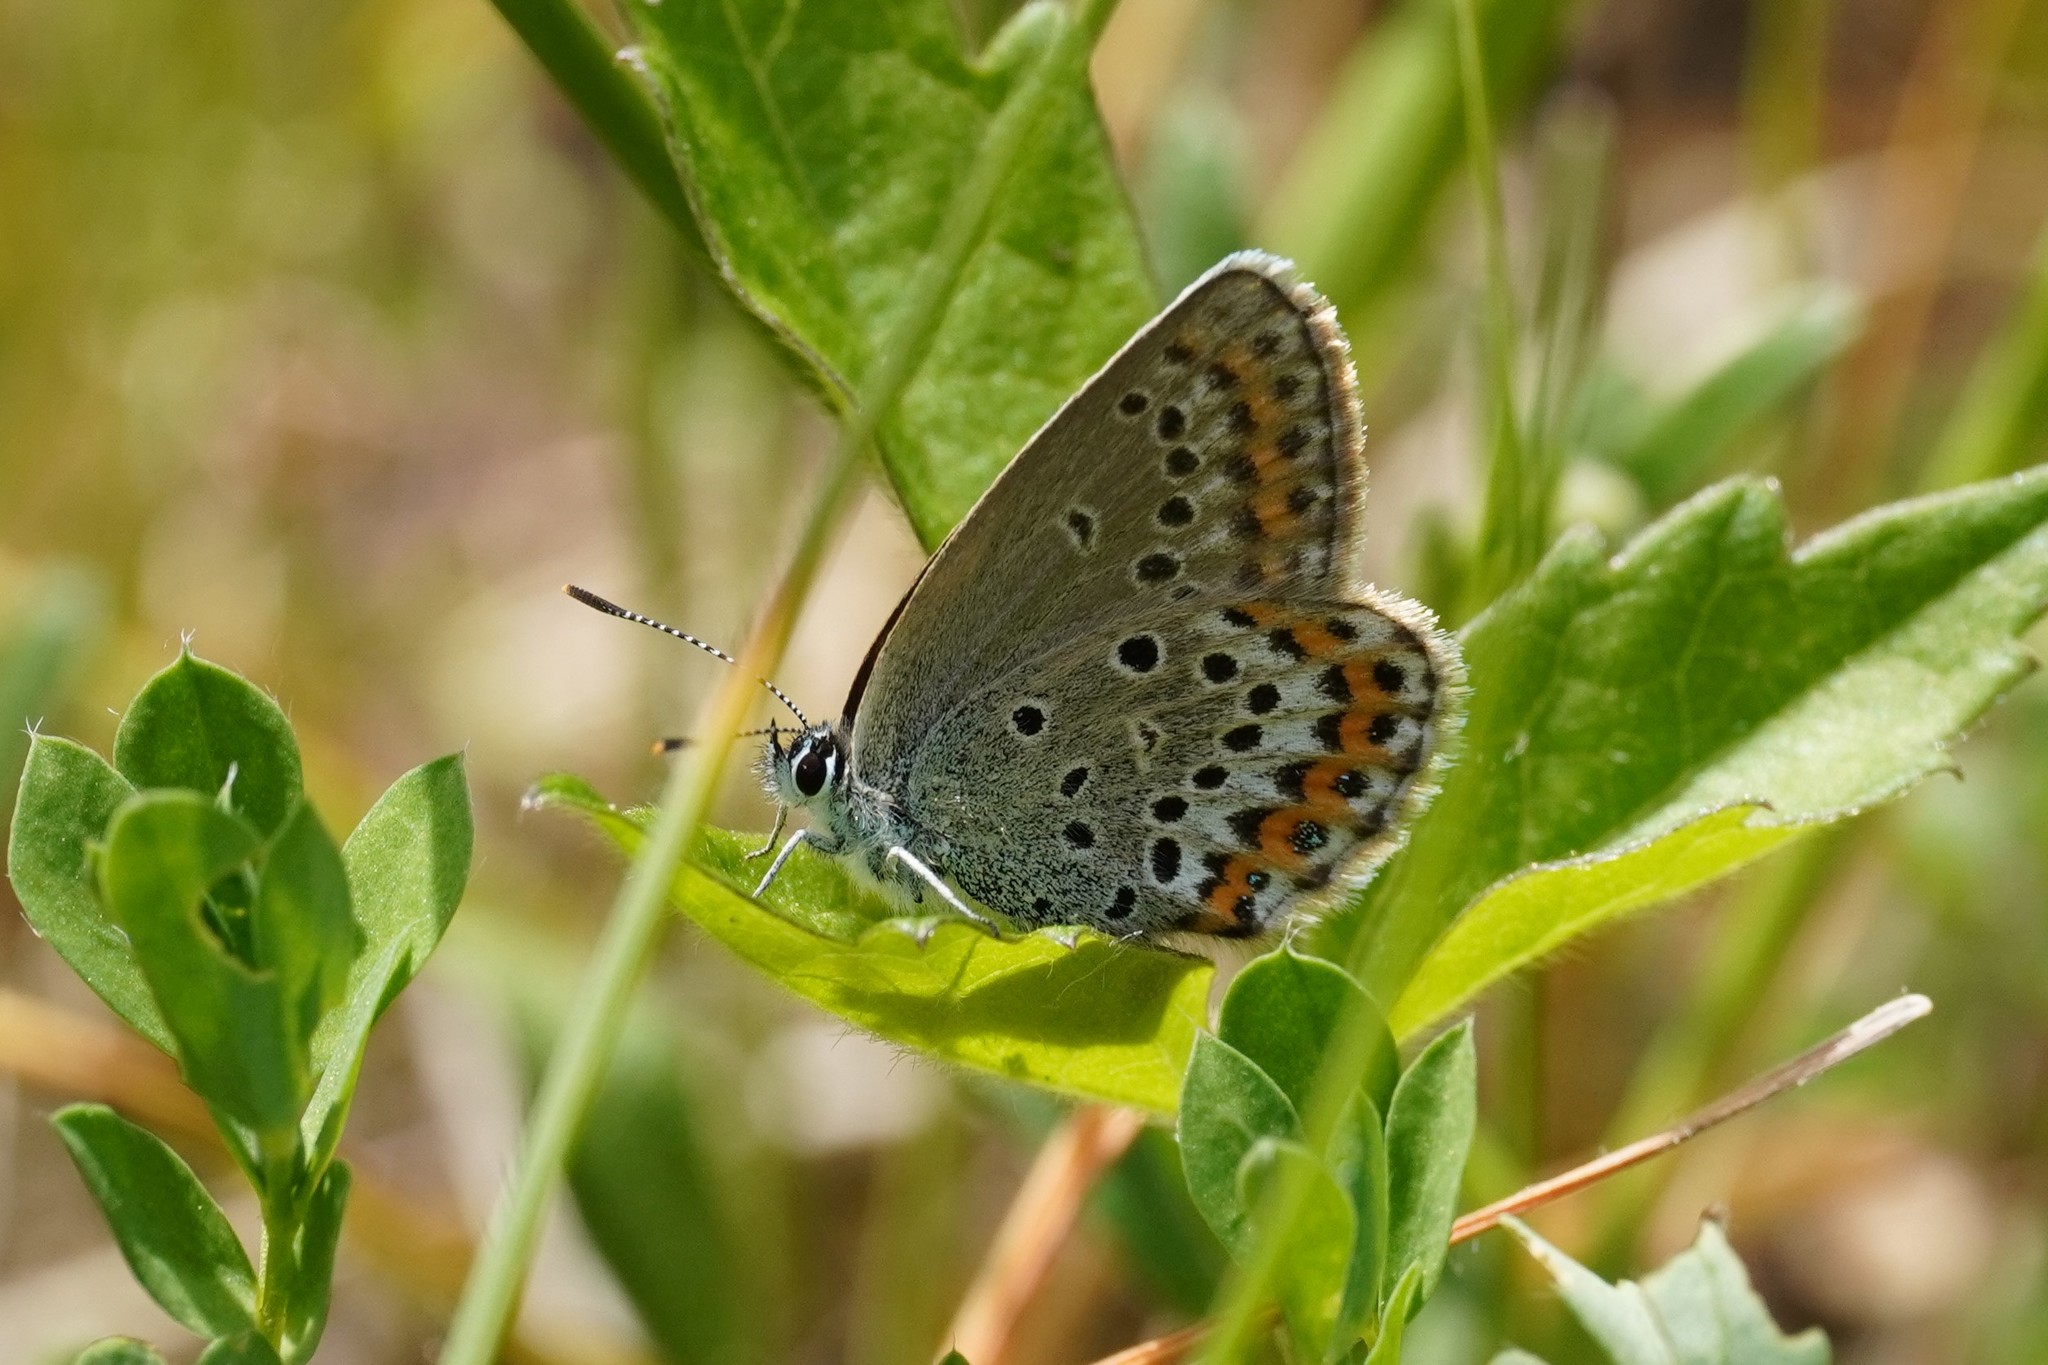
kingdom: Animalia
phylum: Arthropoda
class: Insecta
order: Lepidoptera
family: Lycaenidae
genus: Lycaeides
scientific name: Lycaeides idas
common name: Northern blue
